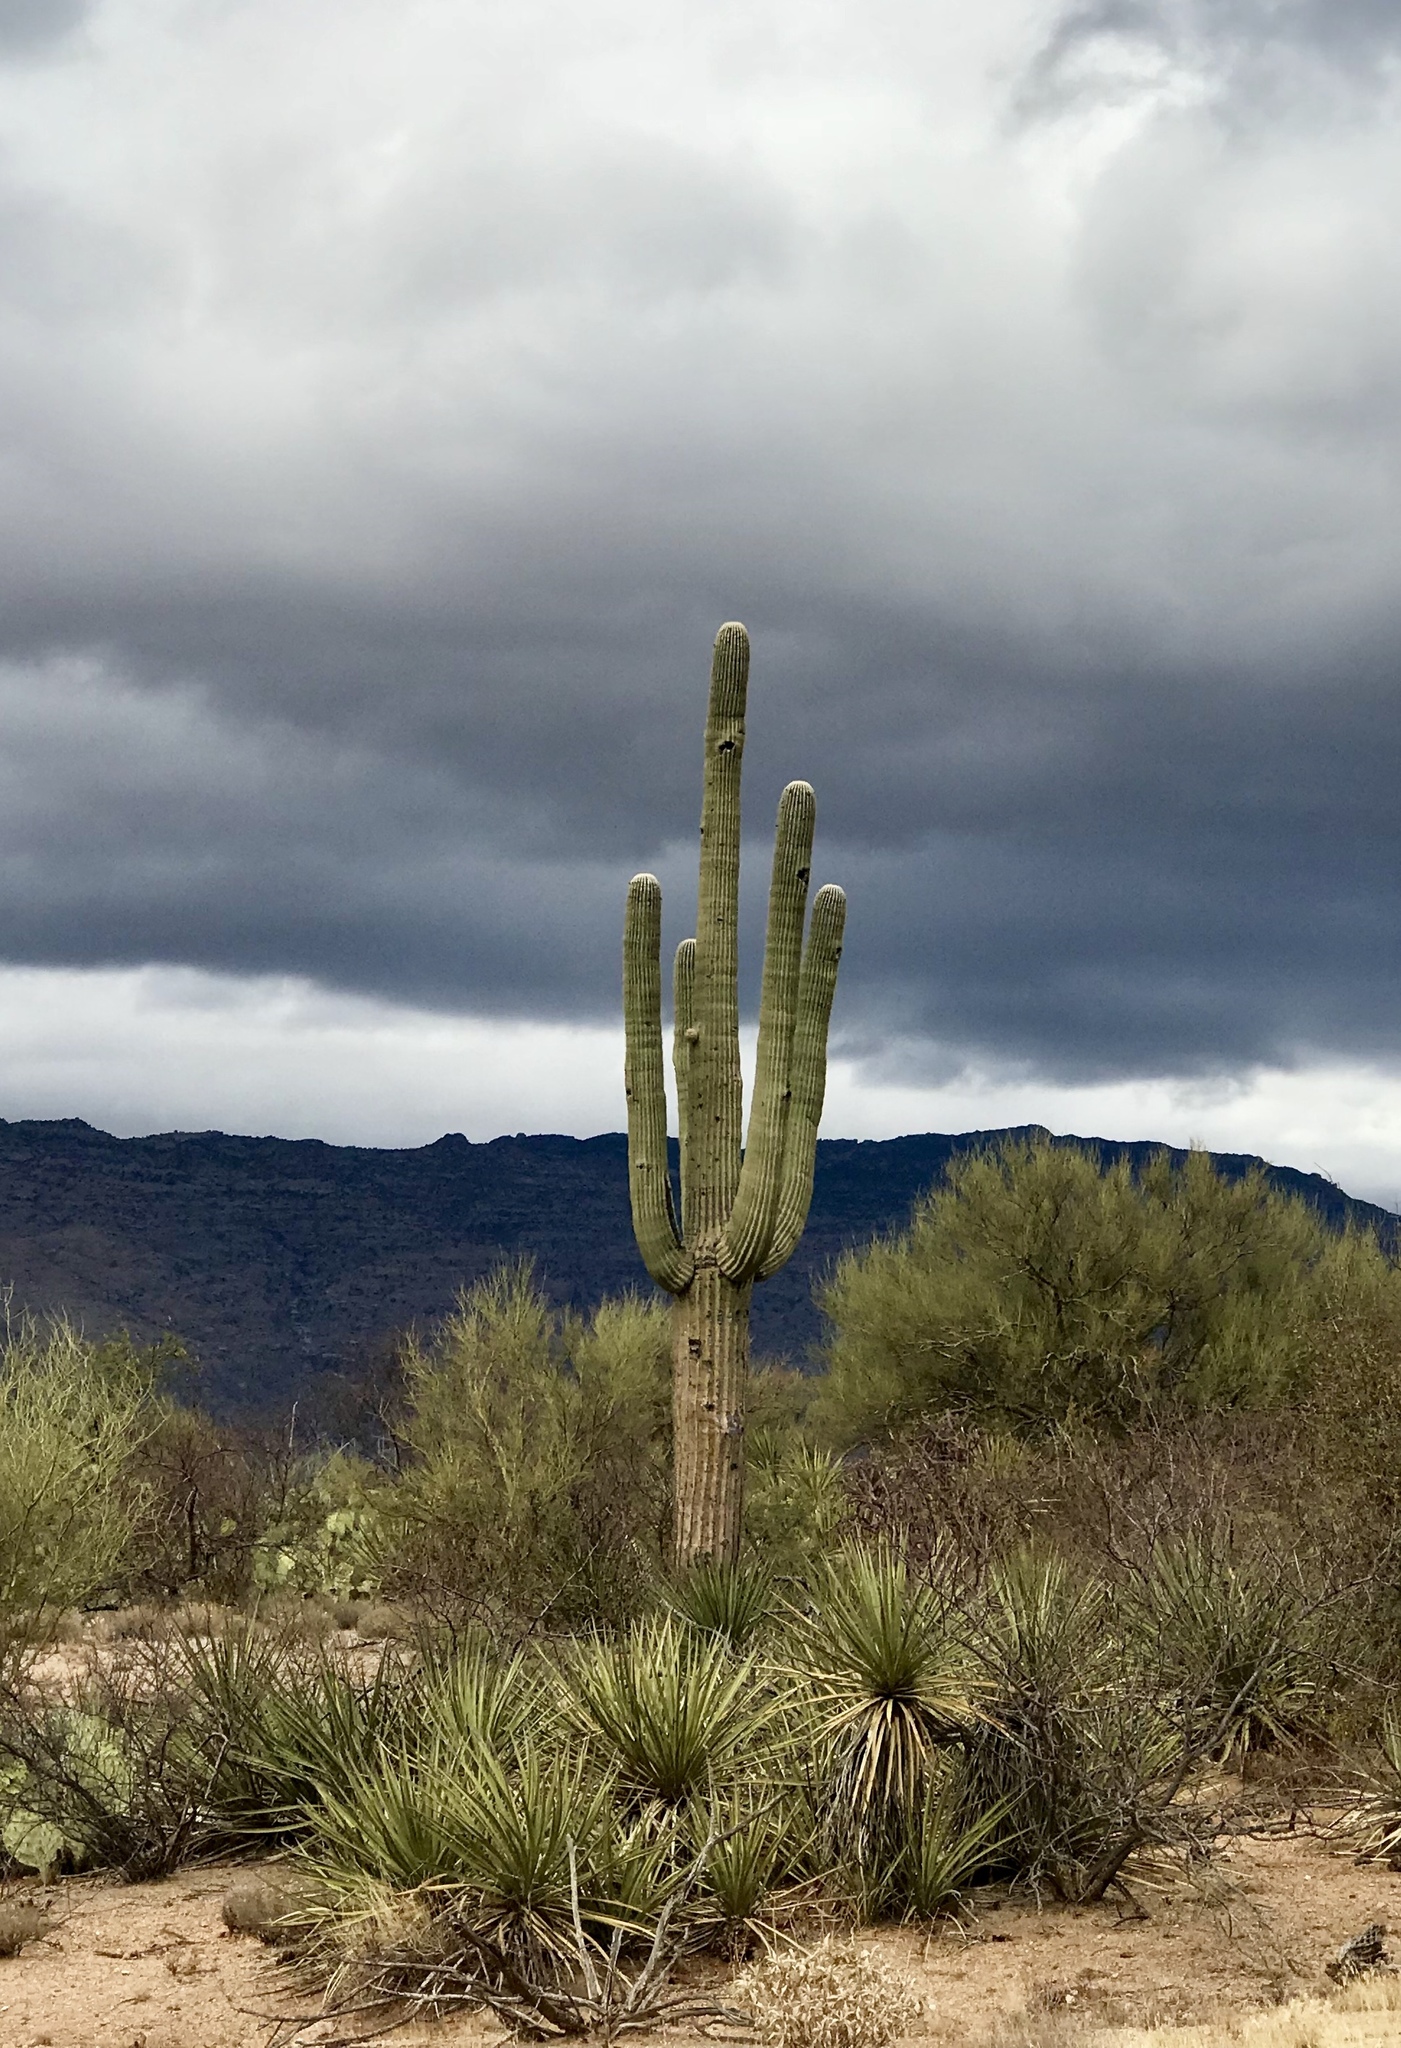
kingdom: Plantae
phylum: Tracheophyta
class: Magnoliopsida
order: Caryophyllales
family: Cactaceae
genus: Carnegiea
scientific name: Carnegiea gigantea
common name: Saguaro
